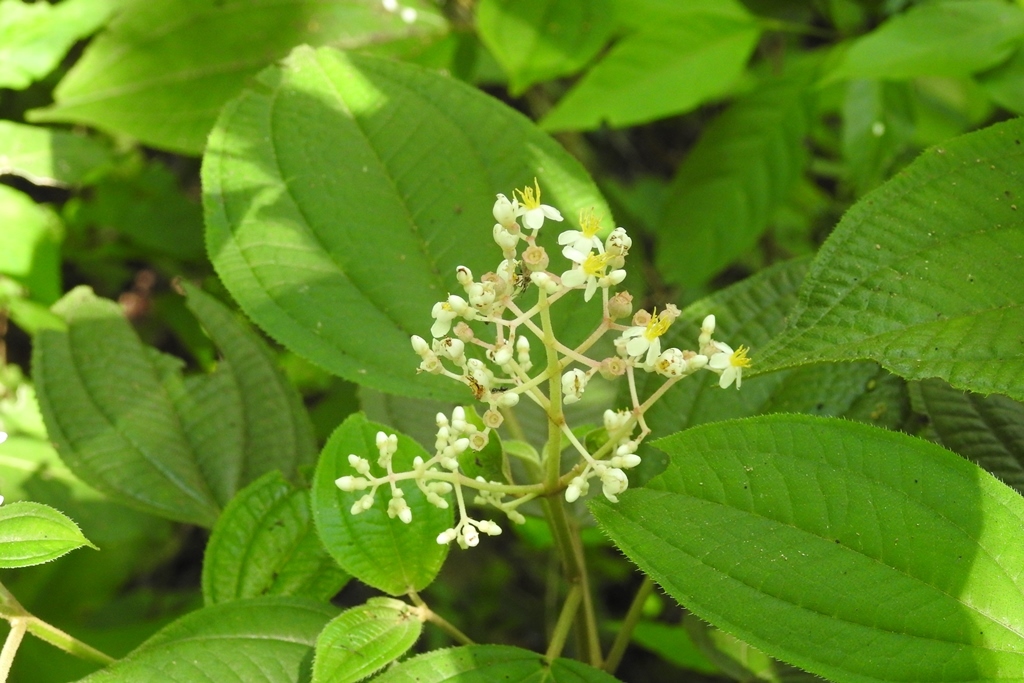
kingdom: Plantae
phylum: Tracheophyta
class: Magnoliopsida
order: Myrtales
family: Melastomataceae
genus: Miconia
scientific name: Miconia matudae
